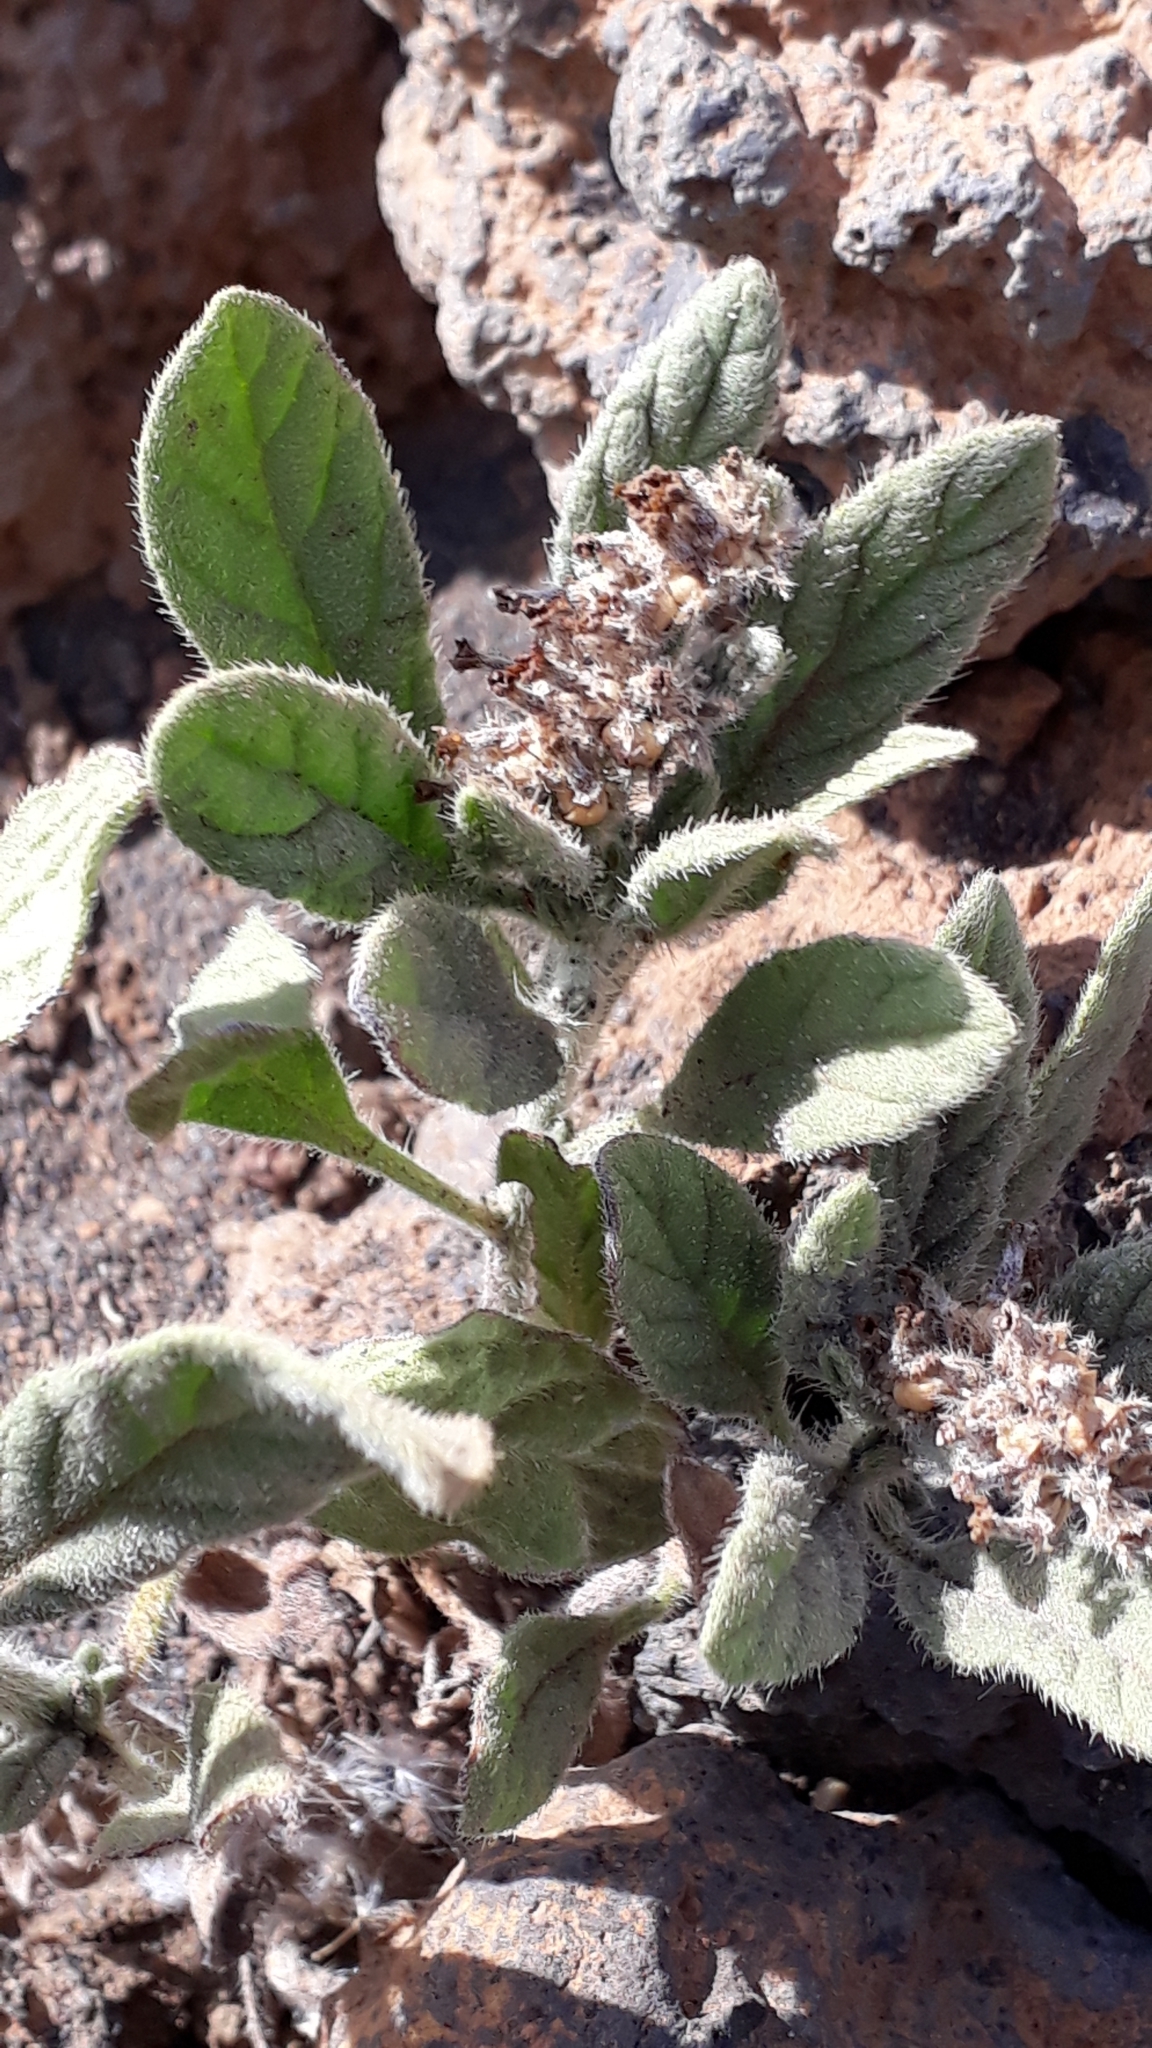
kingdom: Plantae
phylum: Tracheophyta
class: Magnoliopsida
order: Boraginales
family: Heliotropiaceae
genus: Heliotropium
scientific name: Heliotropium ramosissimum
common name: Wavy heliotrope
